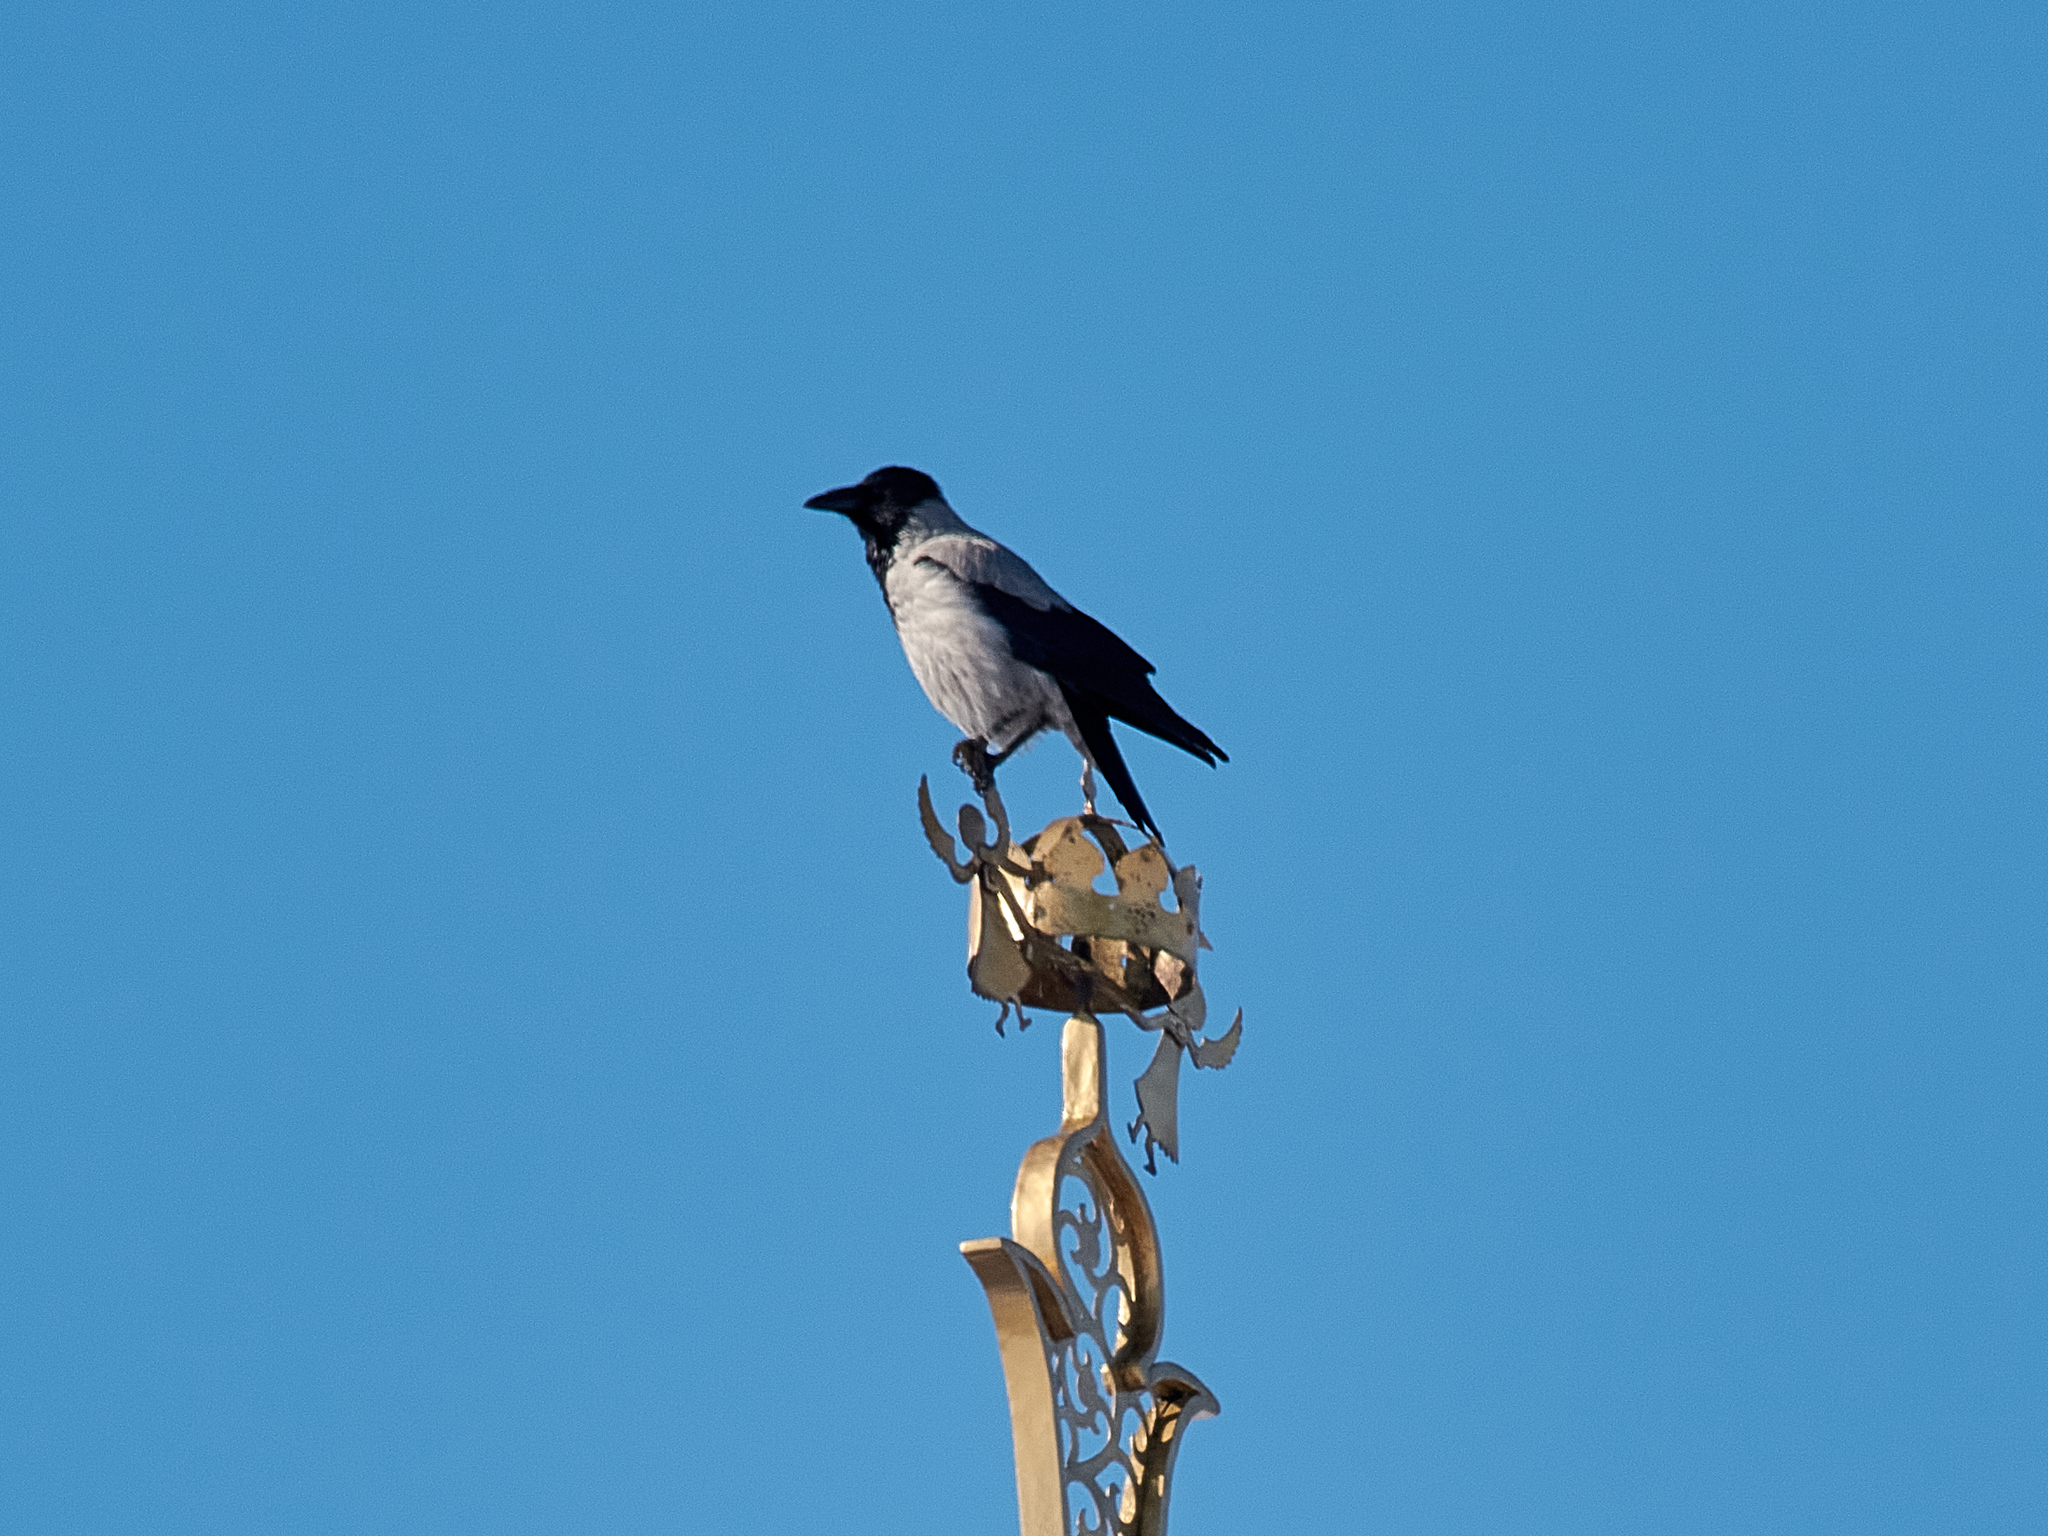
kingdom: Animalia
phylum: Chordata
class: Aves
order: Passeriformes
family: Corvidae
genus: Corvus
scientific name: Corvus cornix
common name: Hooded crow
